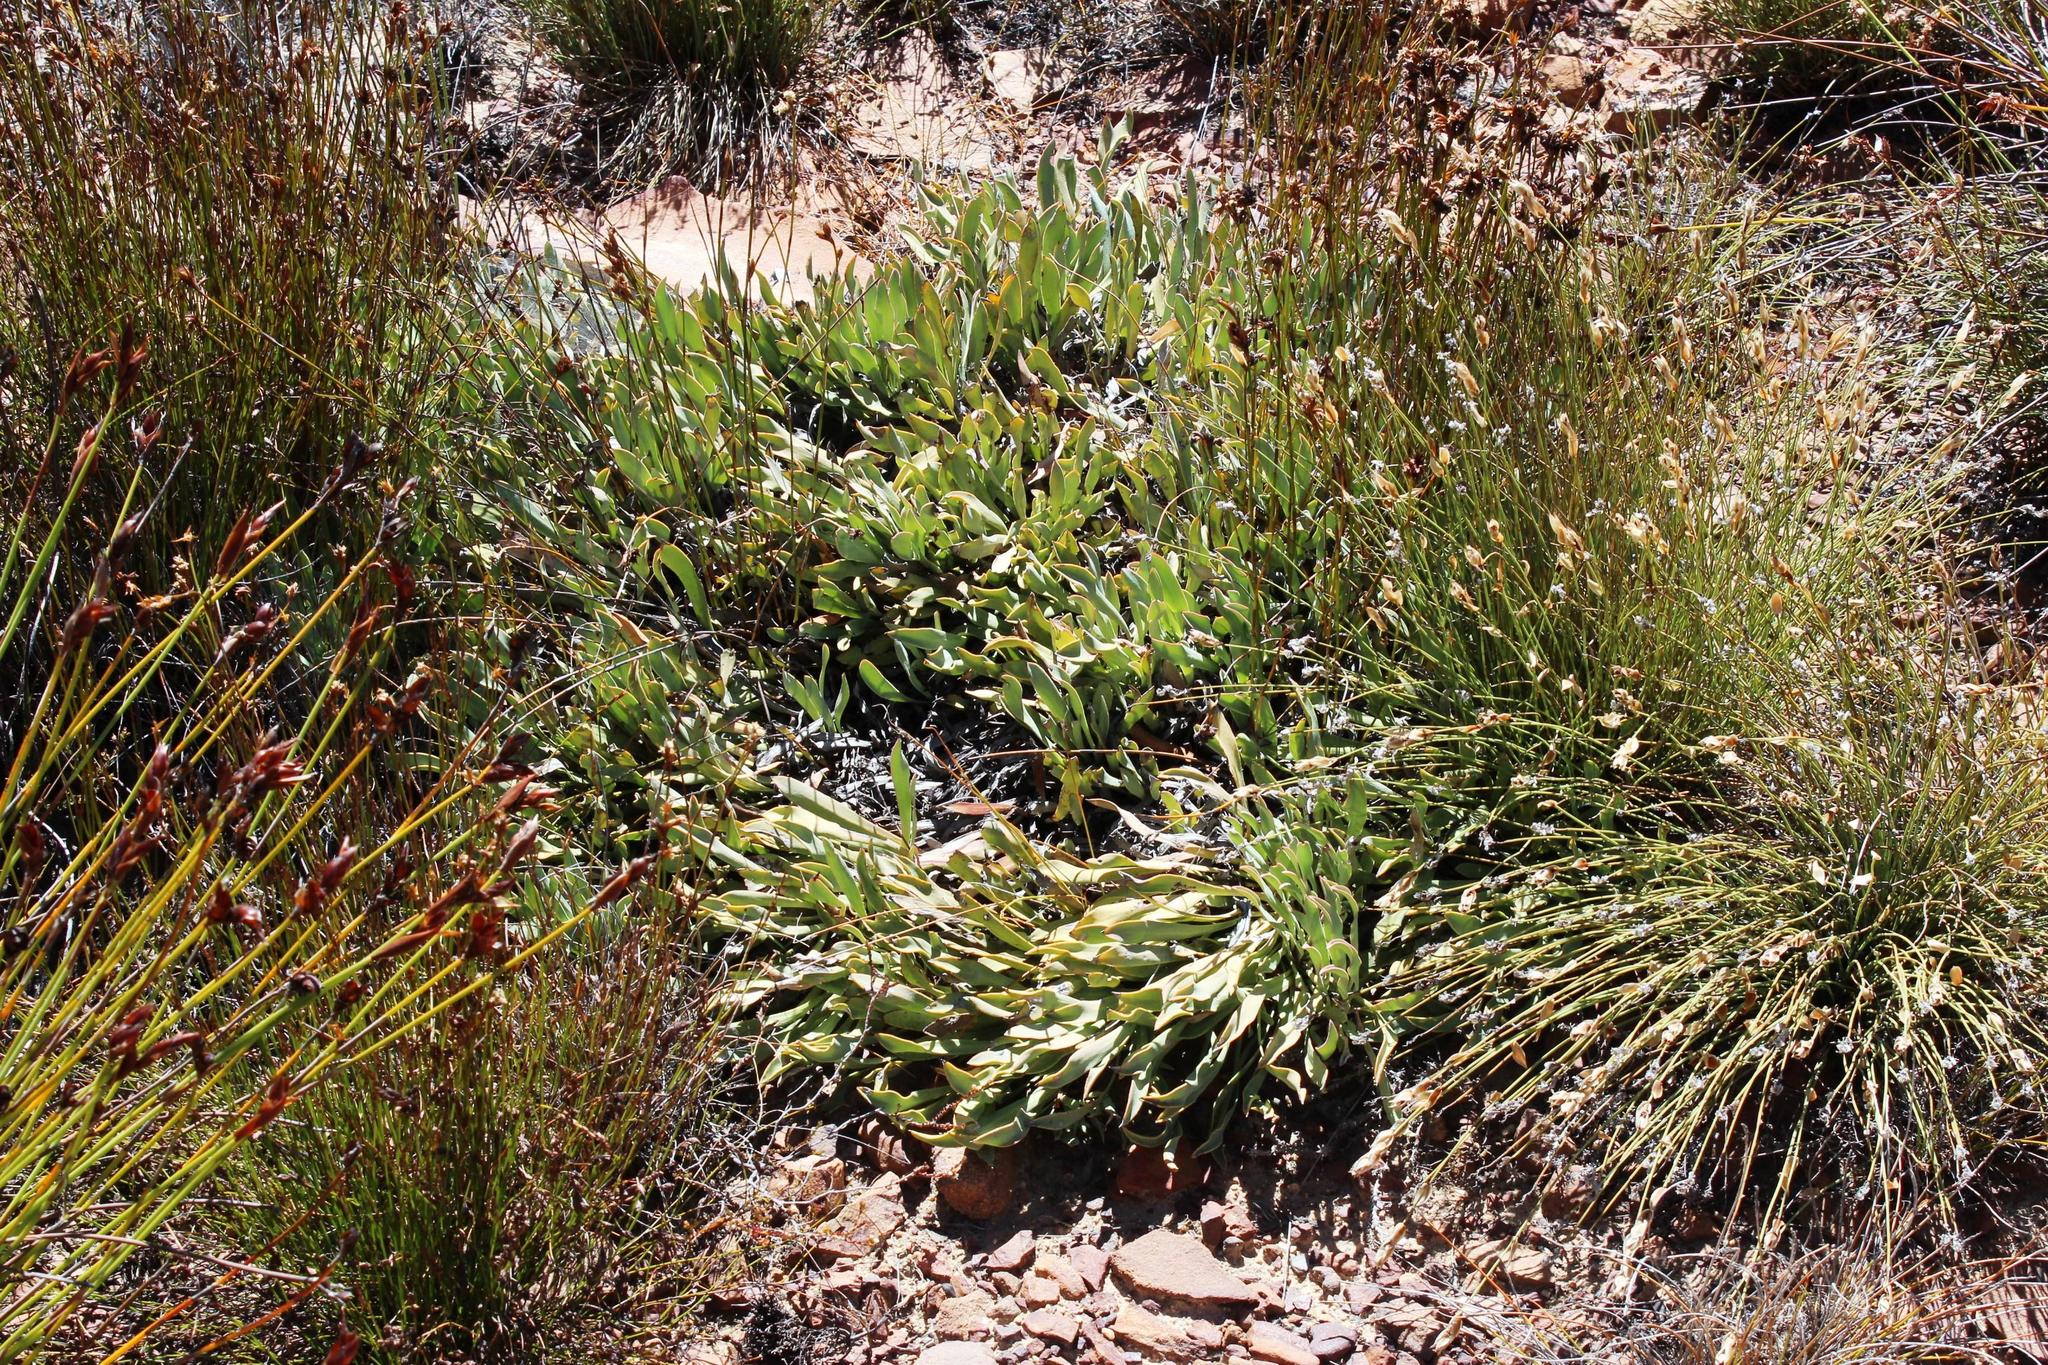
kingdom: Plantae
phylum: Tracheophyta
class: Magnoliopsida
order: Proteales
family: Proteaceae
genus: Protea
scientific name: Protea laevis
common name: Smooth-leaf sugarbush
